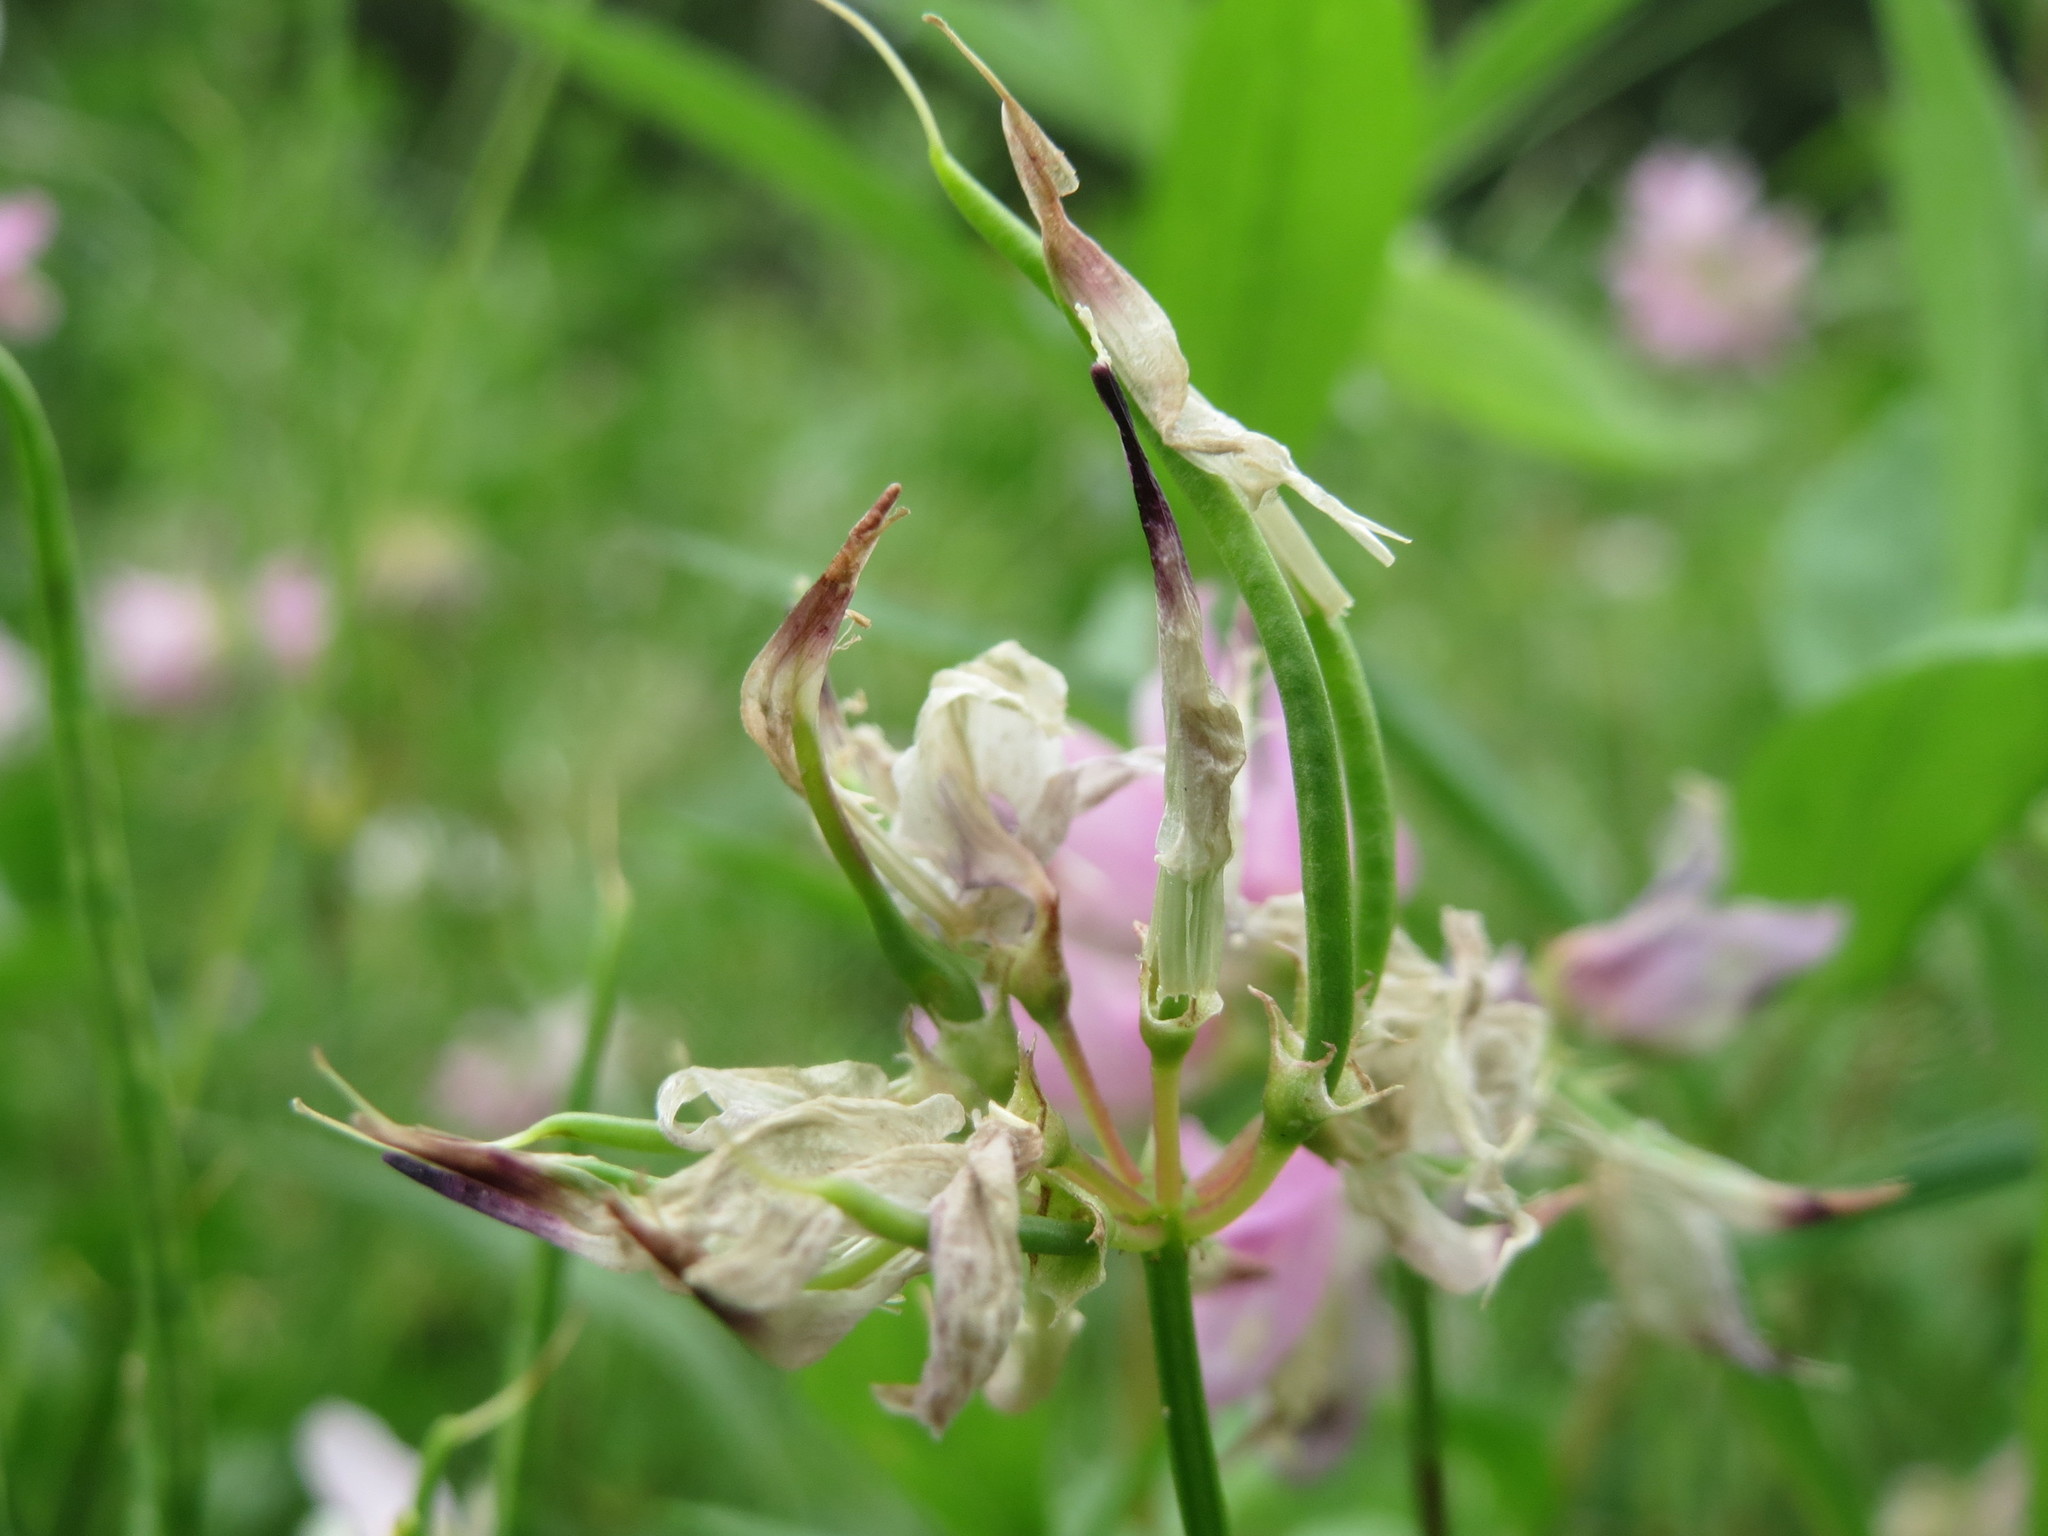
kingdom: Plantae
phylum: Tracheophyta
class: Magnoliopsida
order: Fabales
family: Fabaceae
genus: Coronilla
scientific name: Coronilla varia
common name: Crownvetch
